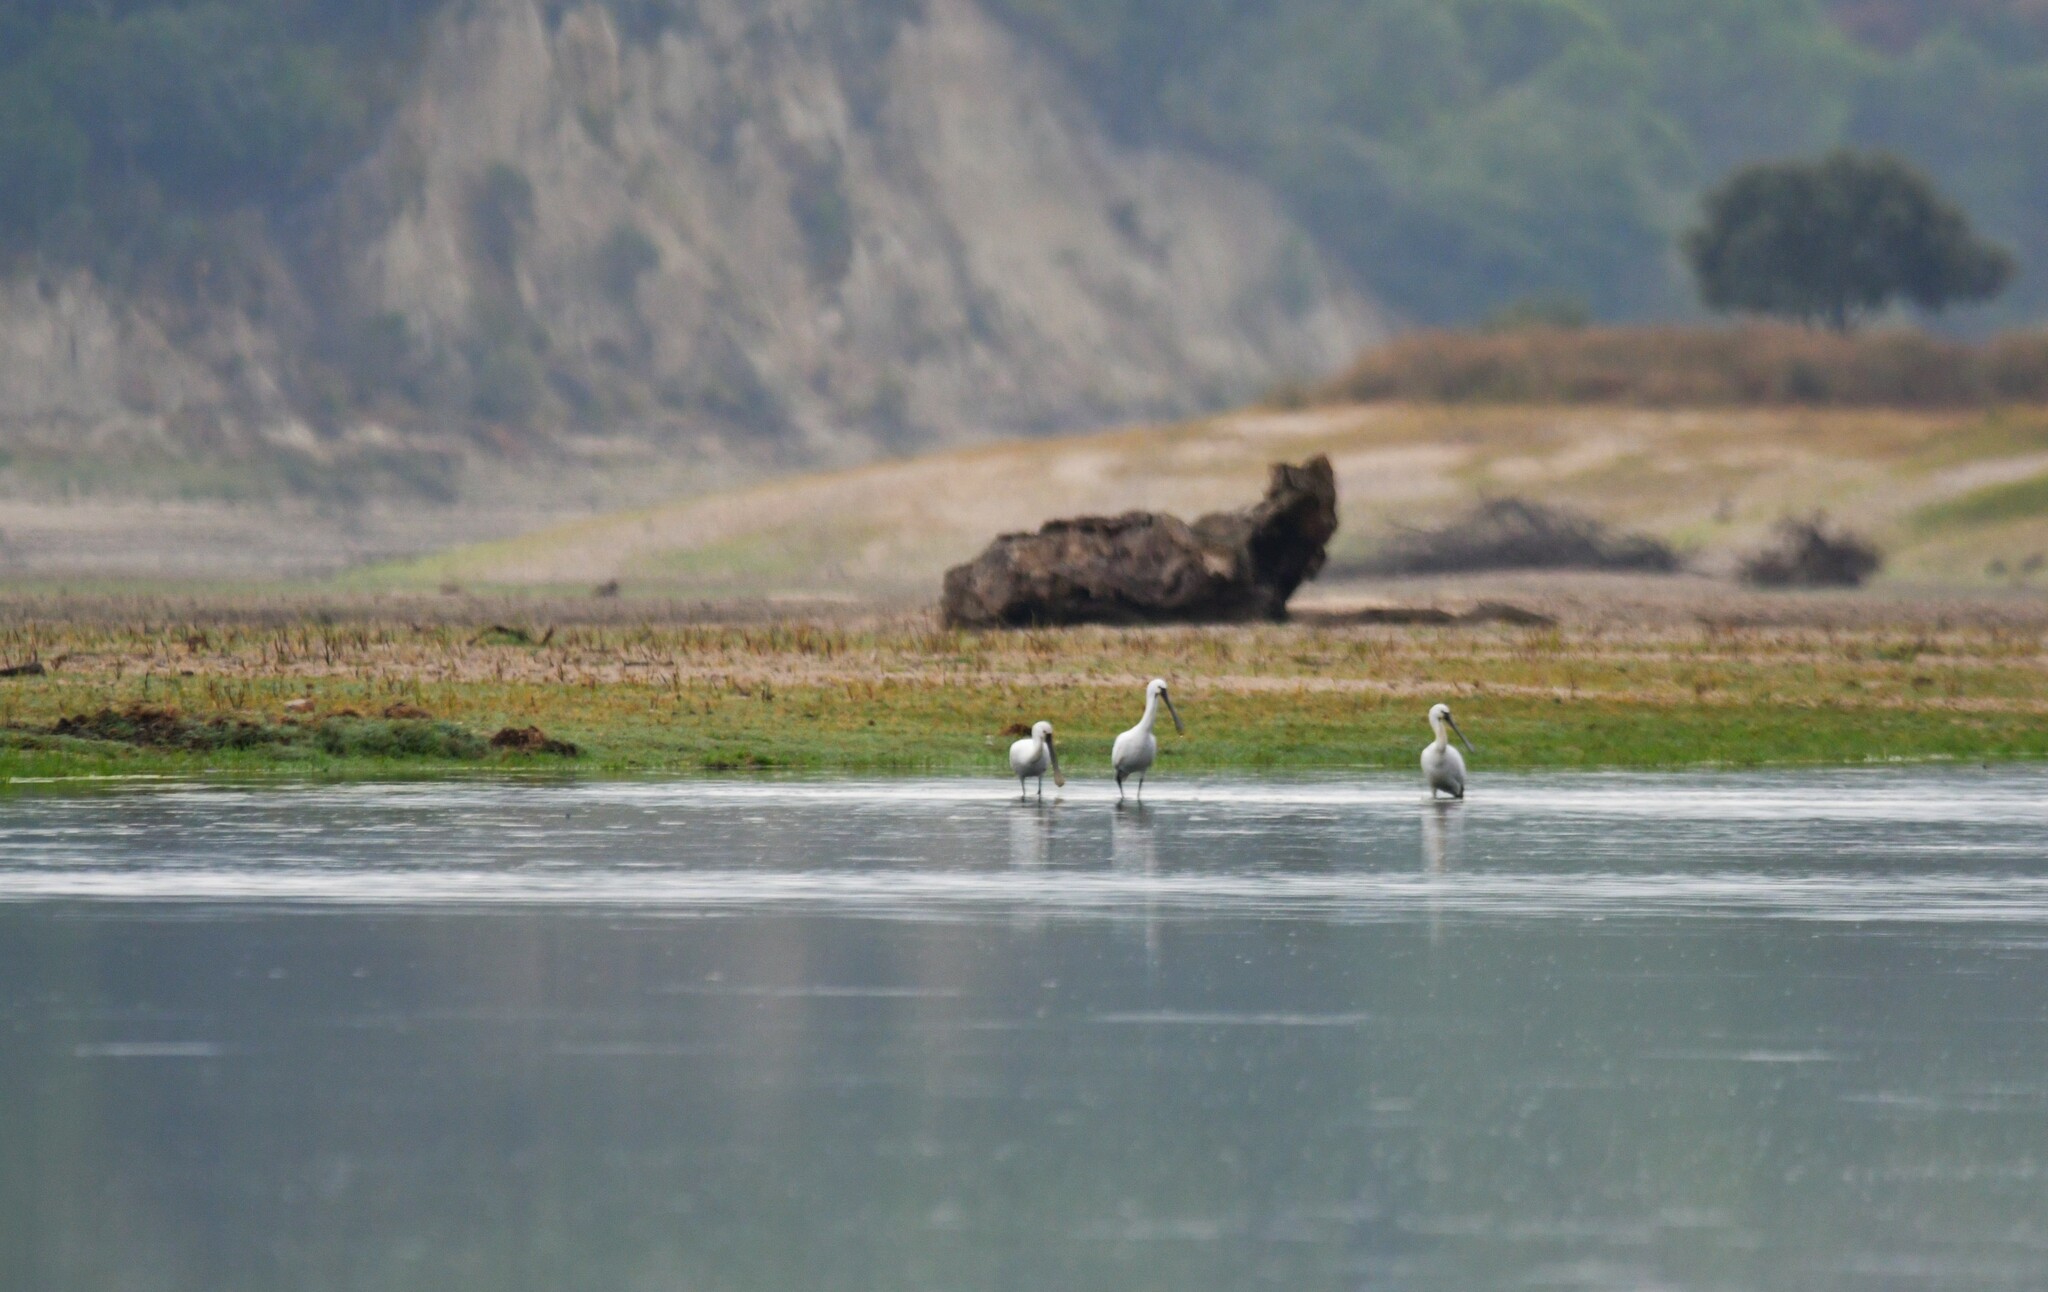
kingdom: Animalia
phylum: Chordata
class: Aves
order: Pelecaniformes
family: Threskiornithidae
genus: Platalea
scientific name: Platalea leucorodia
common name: Eurasian spoonbill
